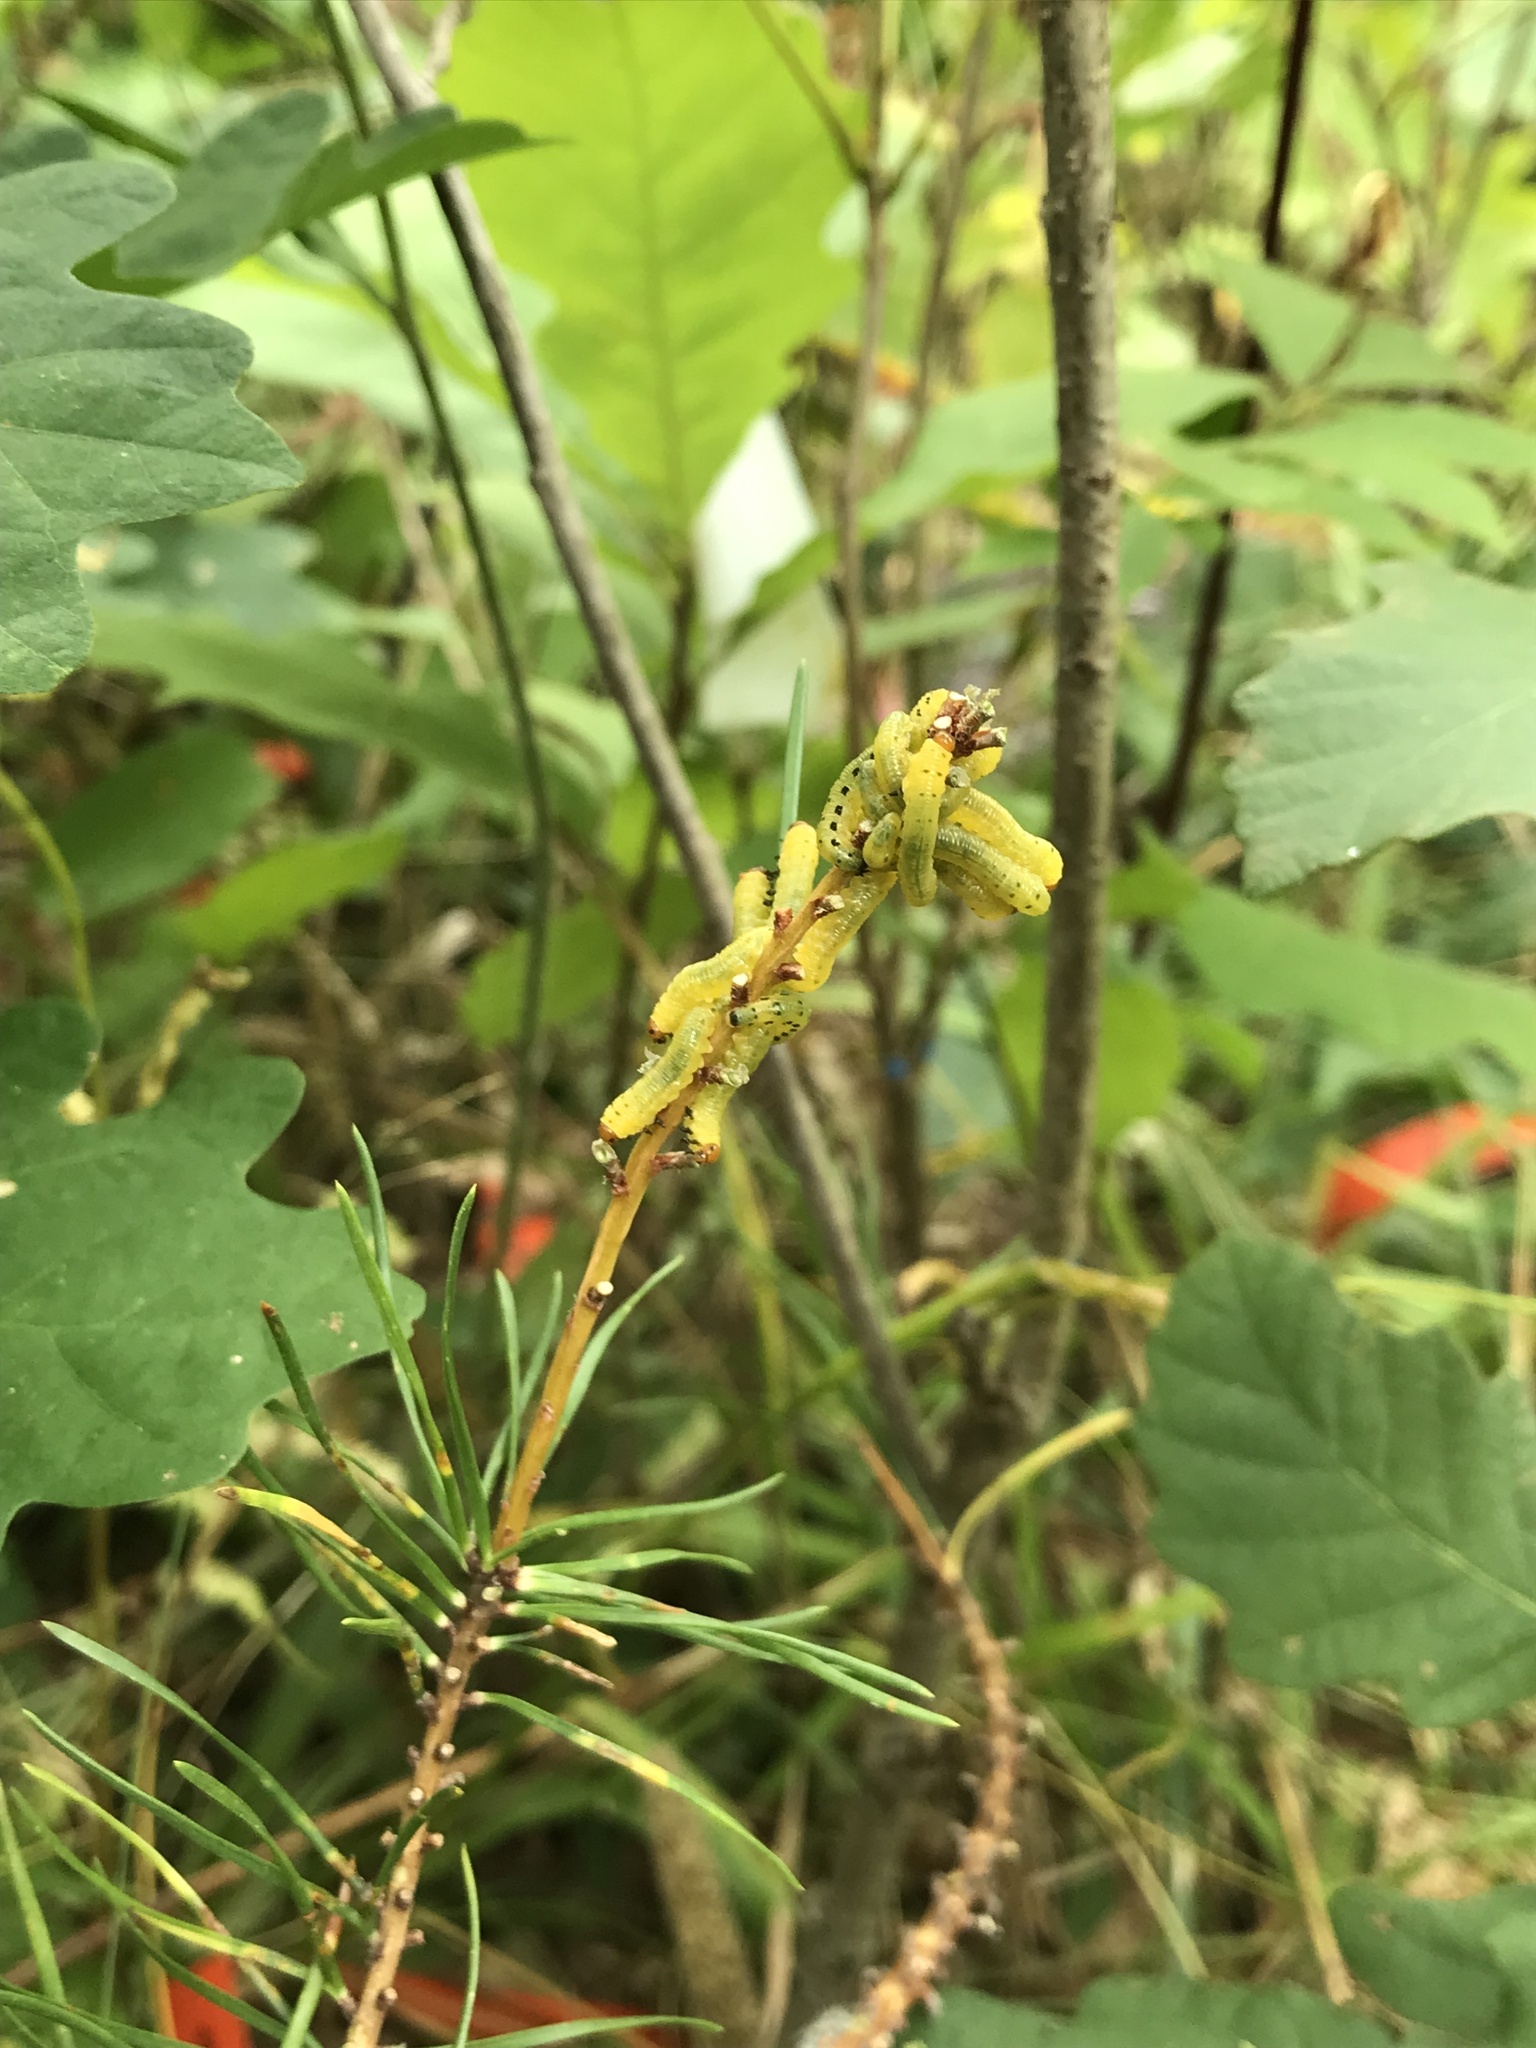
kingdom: Animalia
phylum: Arthropoda
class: Insecta
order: Hymenoptera
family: Diprionidae
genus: Neodiprion
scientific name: Neodiprion lecontei
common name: Redheaded pine sawfly
